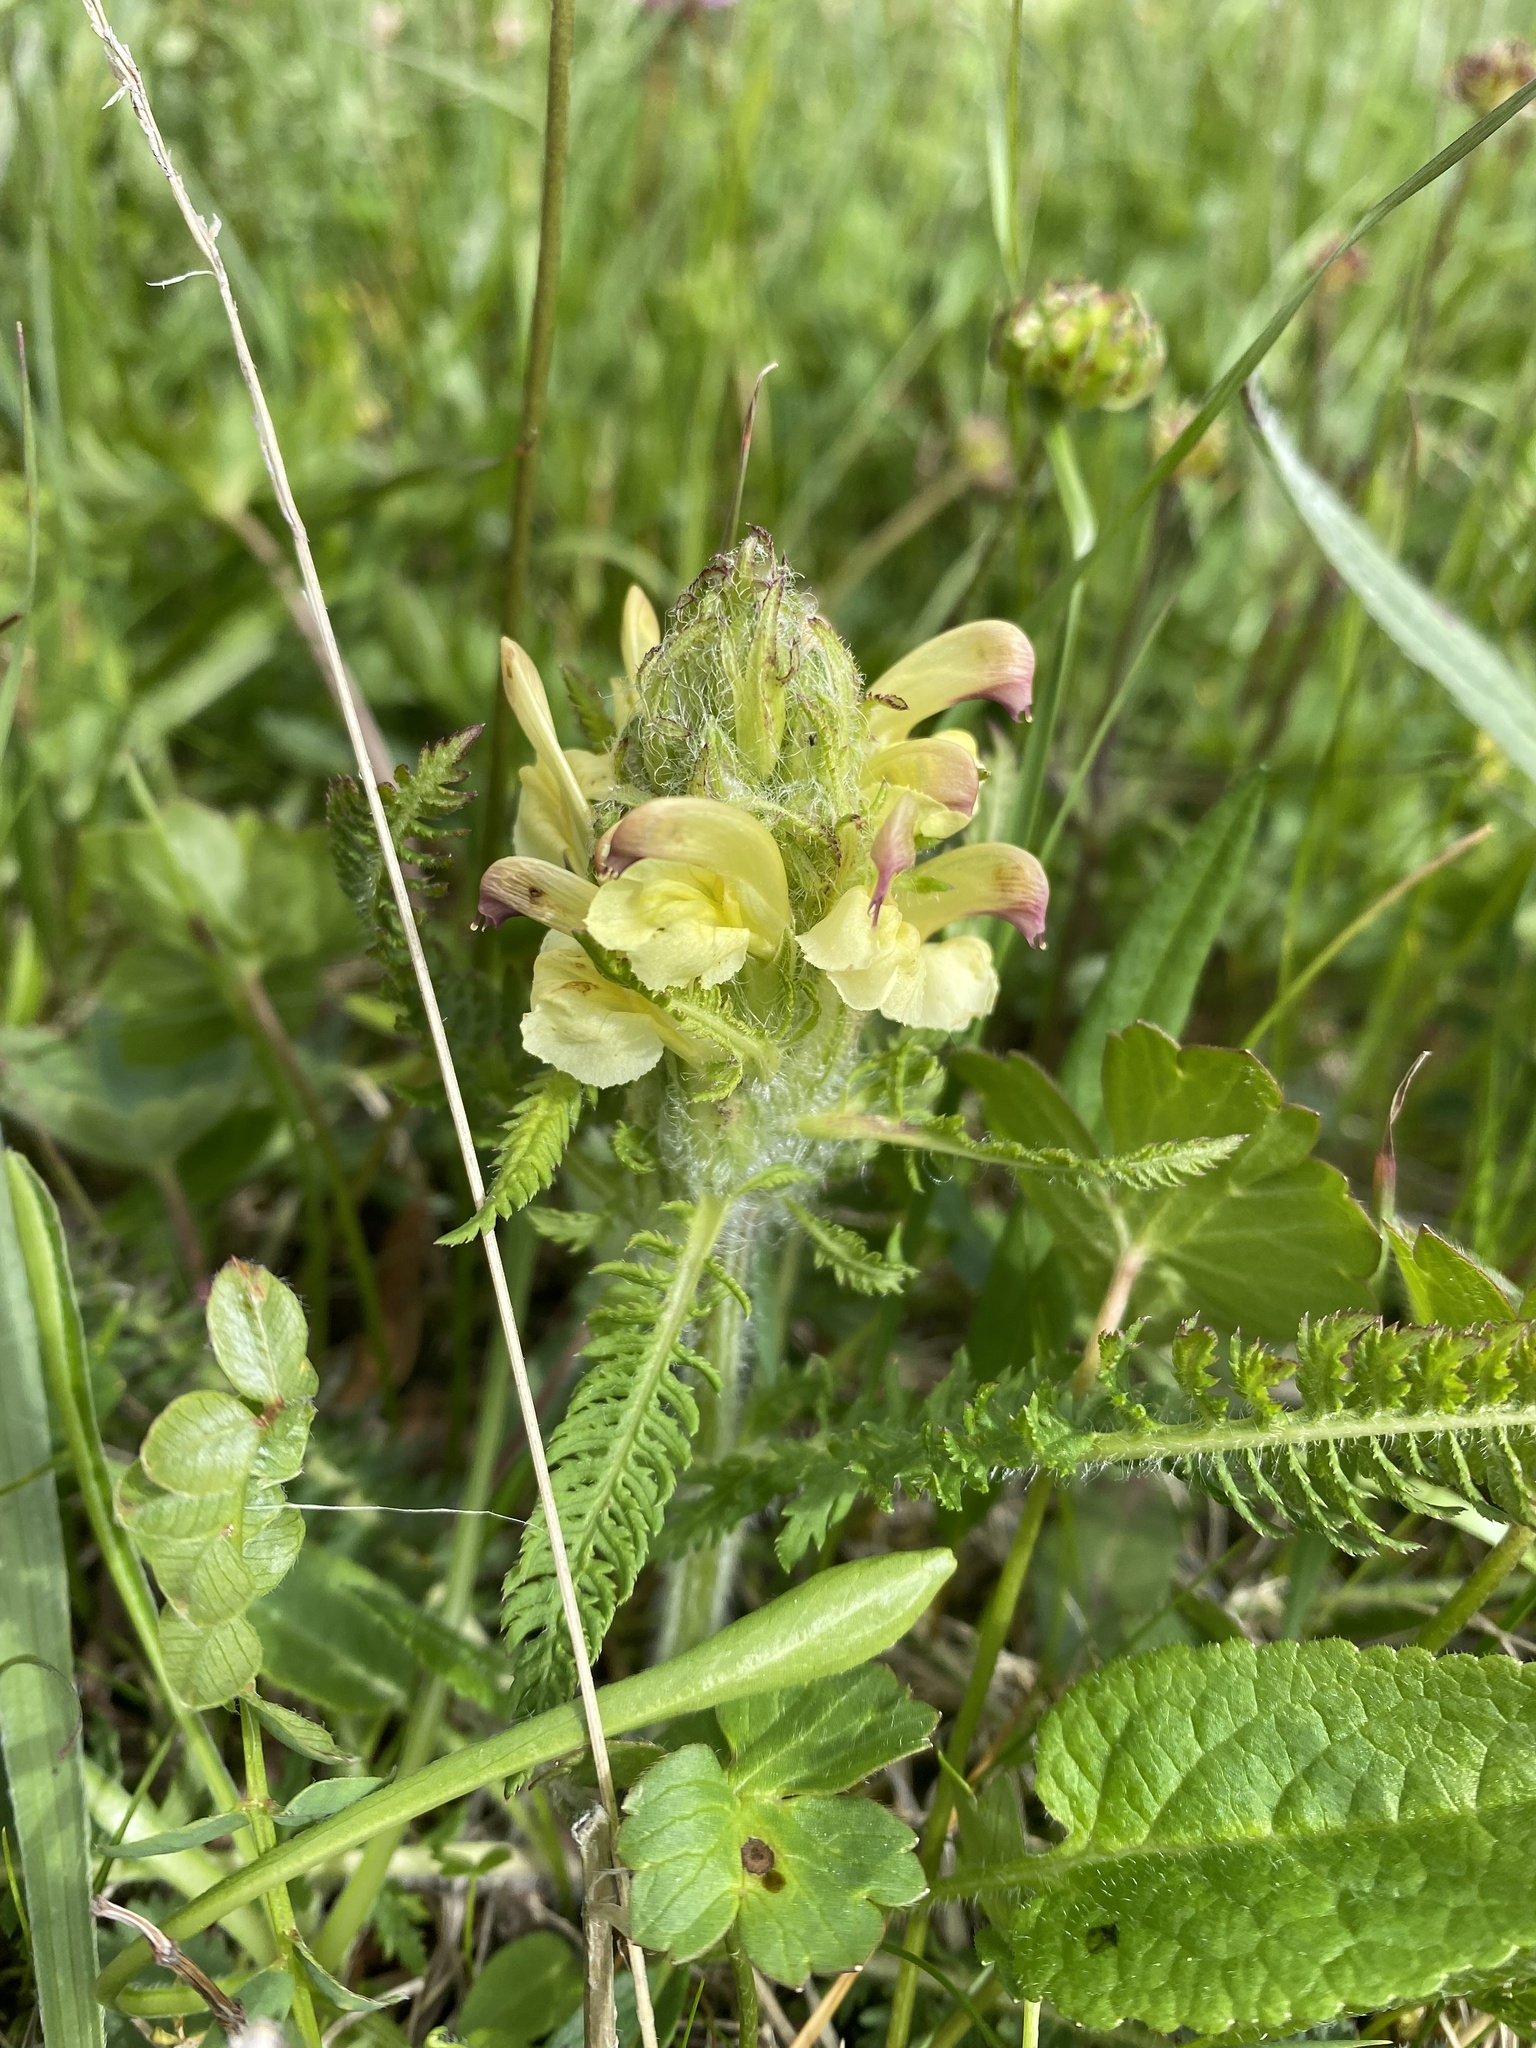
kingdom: Plantae
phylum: Tracheophyta
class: Magnoliopsida
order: Lamiales
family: Orobanchaceae
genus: Pedicularis
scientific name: Pedicularis chroorrhyncha
